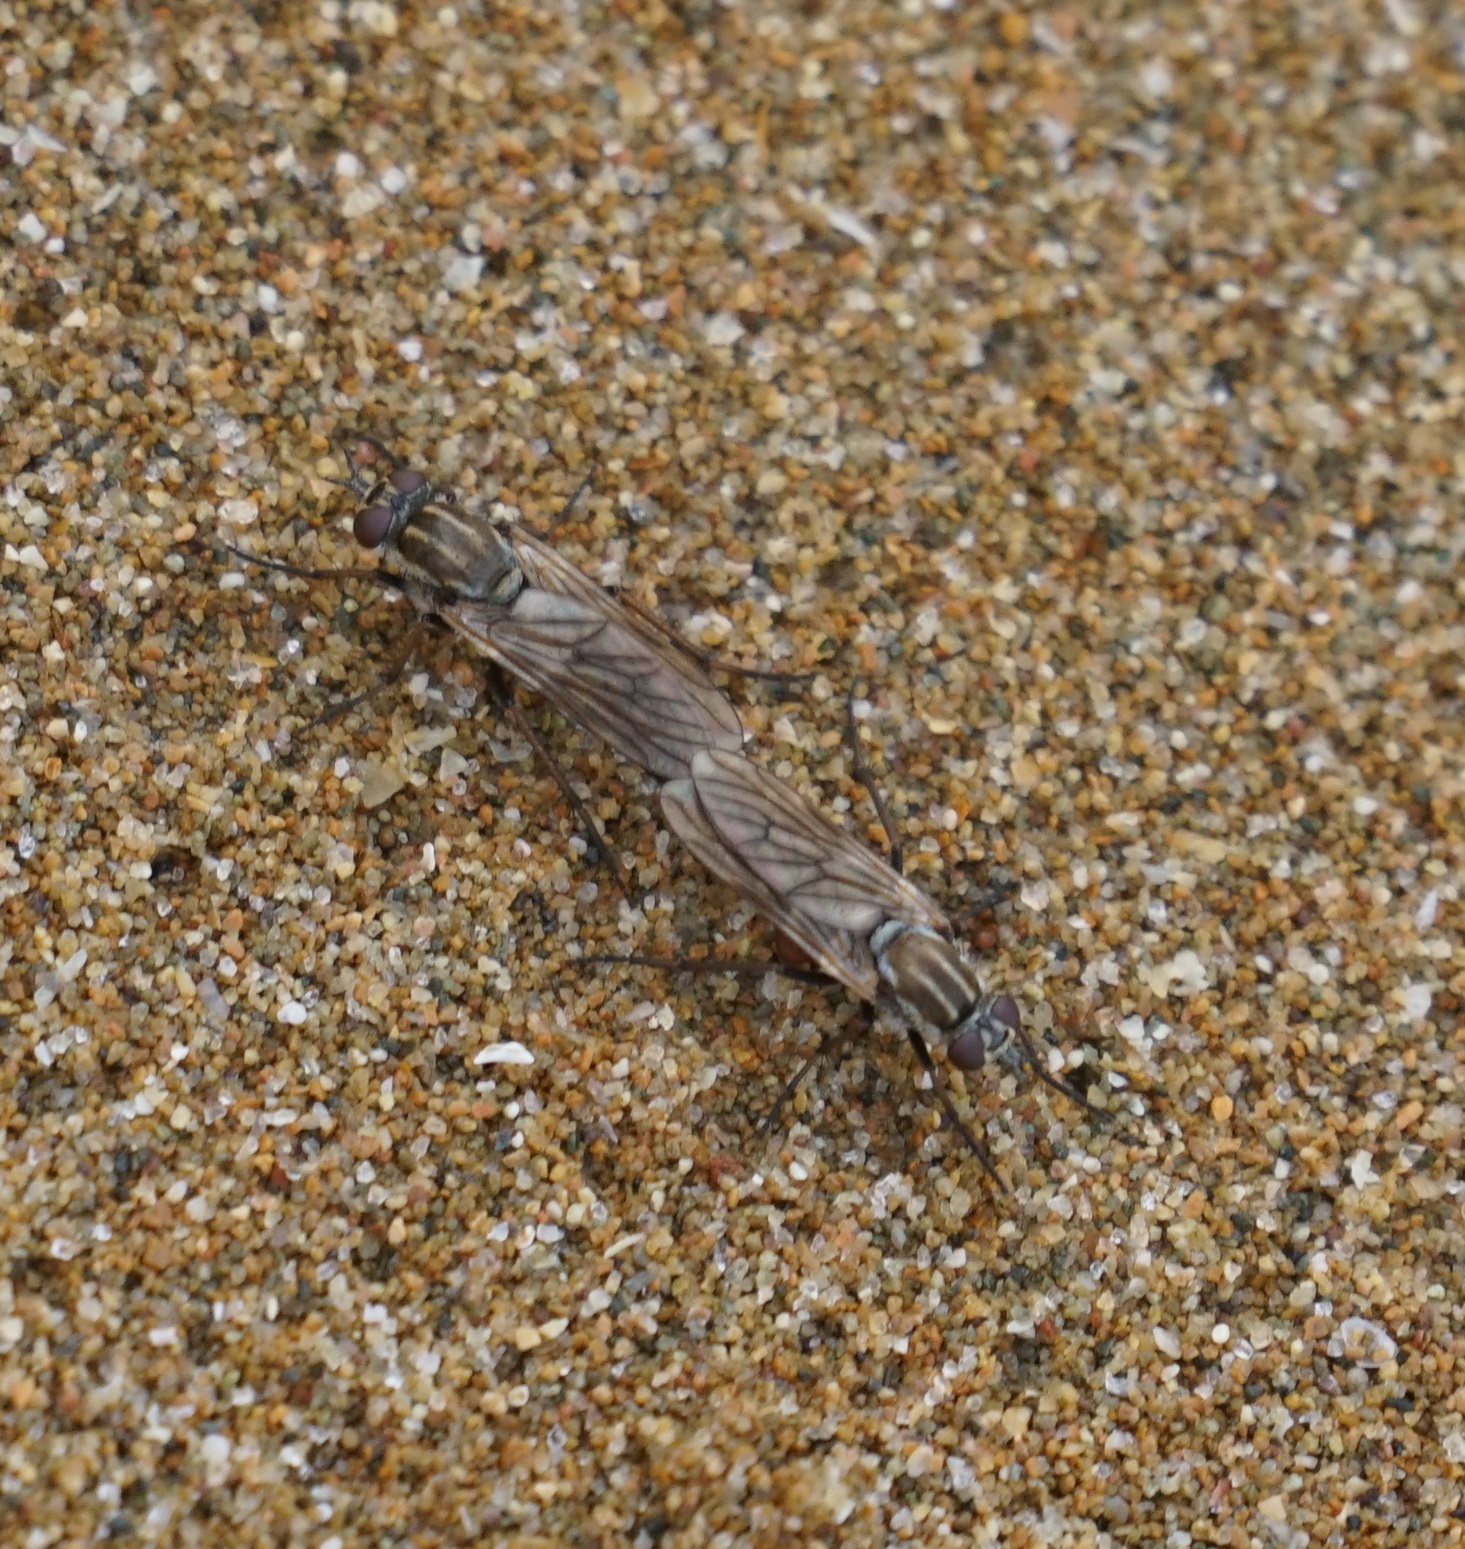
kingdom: Animalia
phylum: Arthropoda
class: Insecta
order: Diptera
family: Therevidae
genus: Anabarhynchus
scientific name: Anabarhynchus hyalipennis
